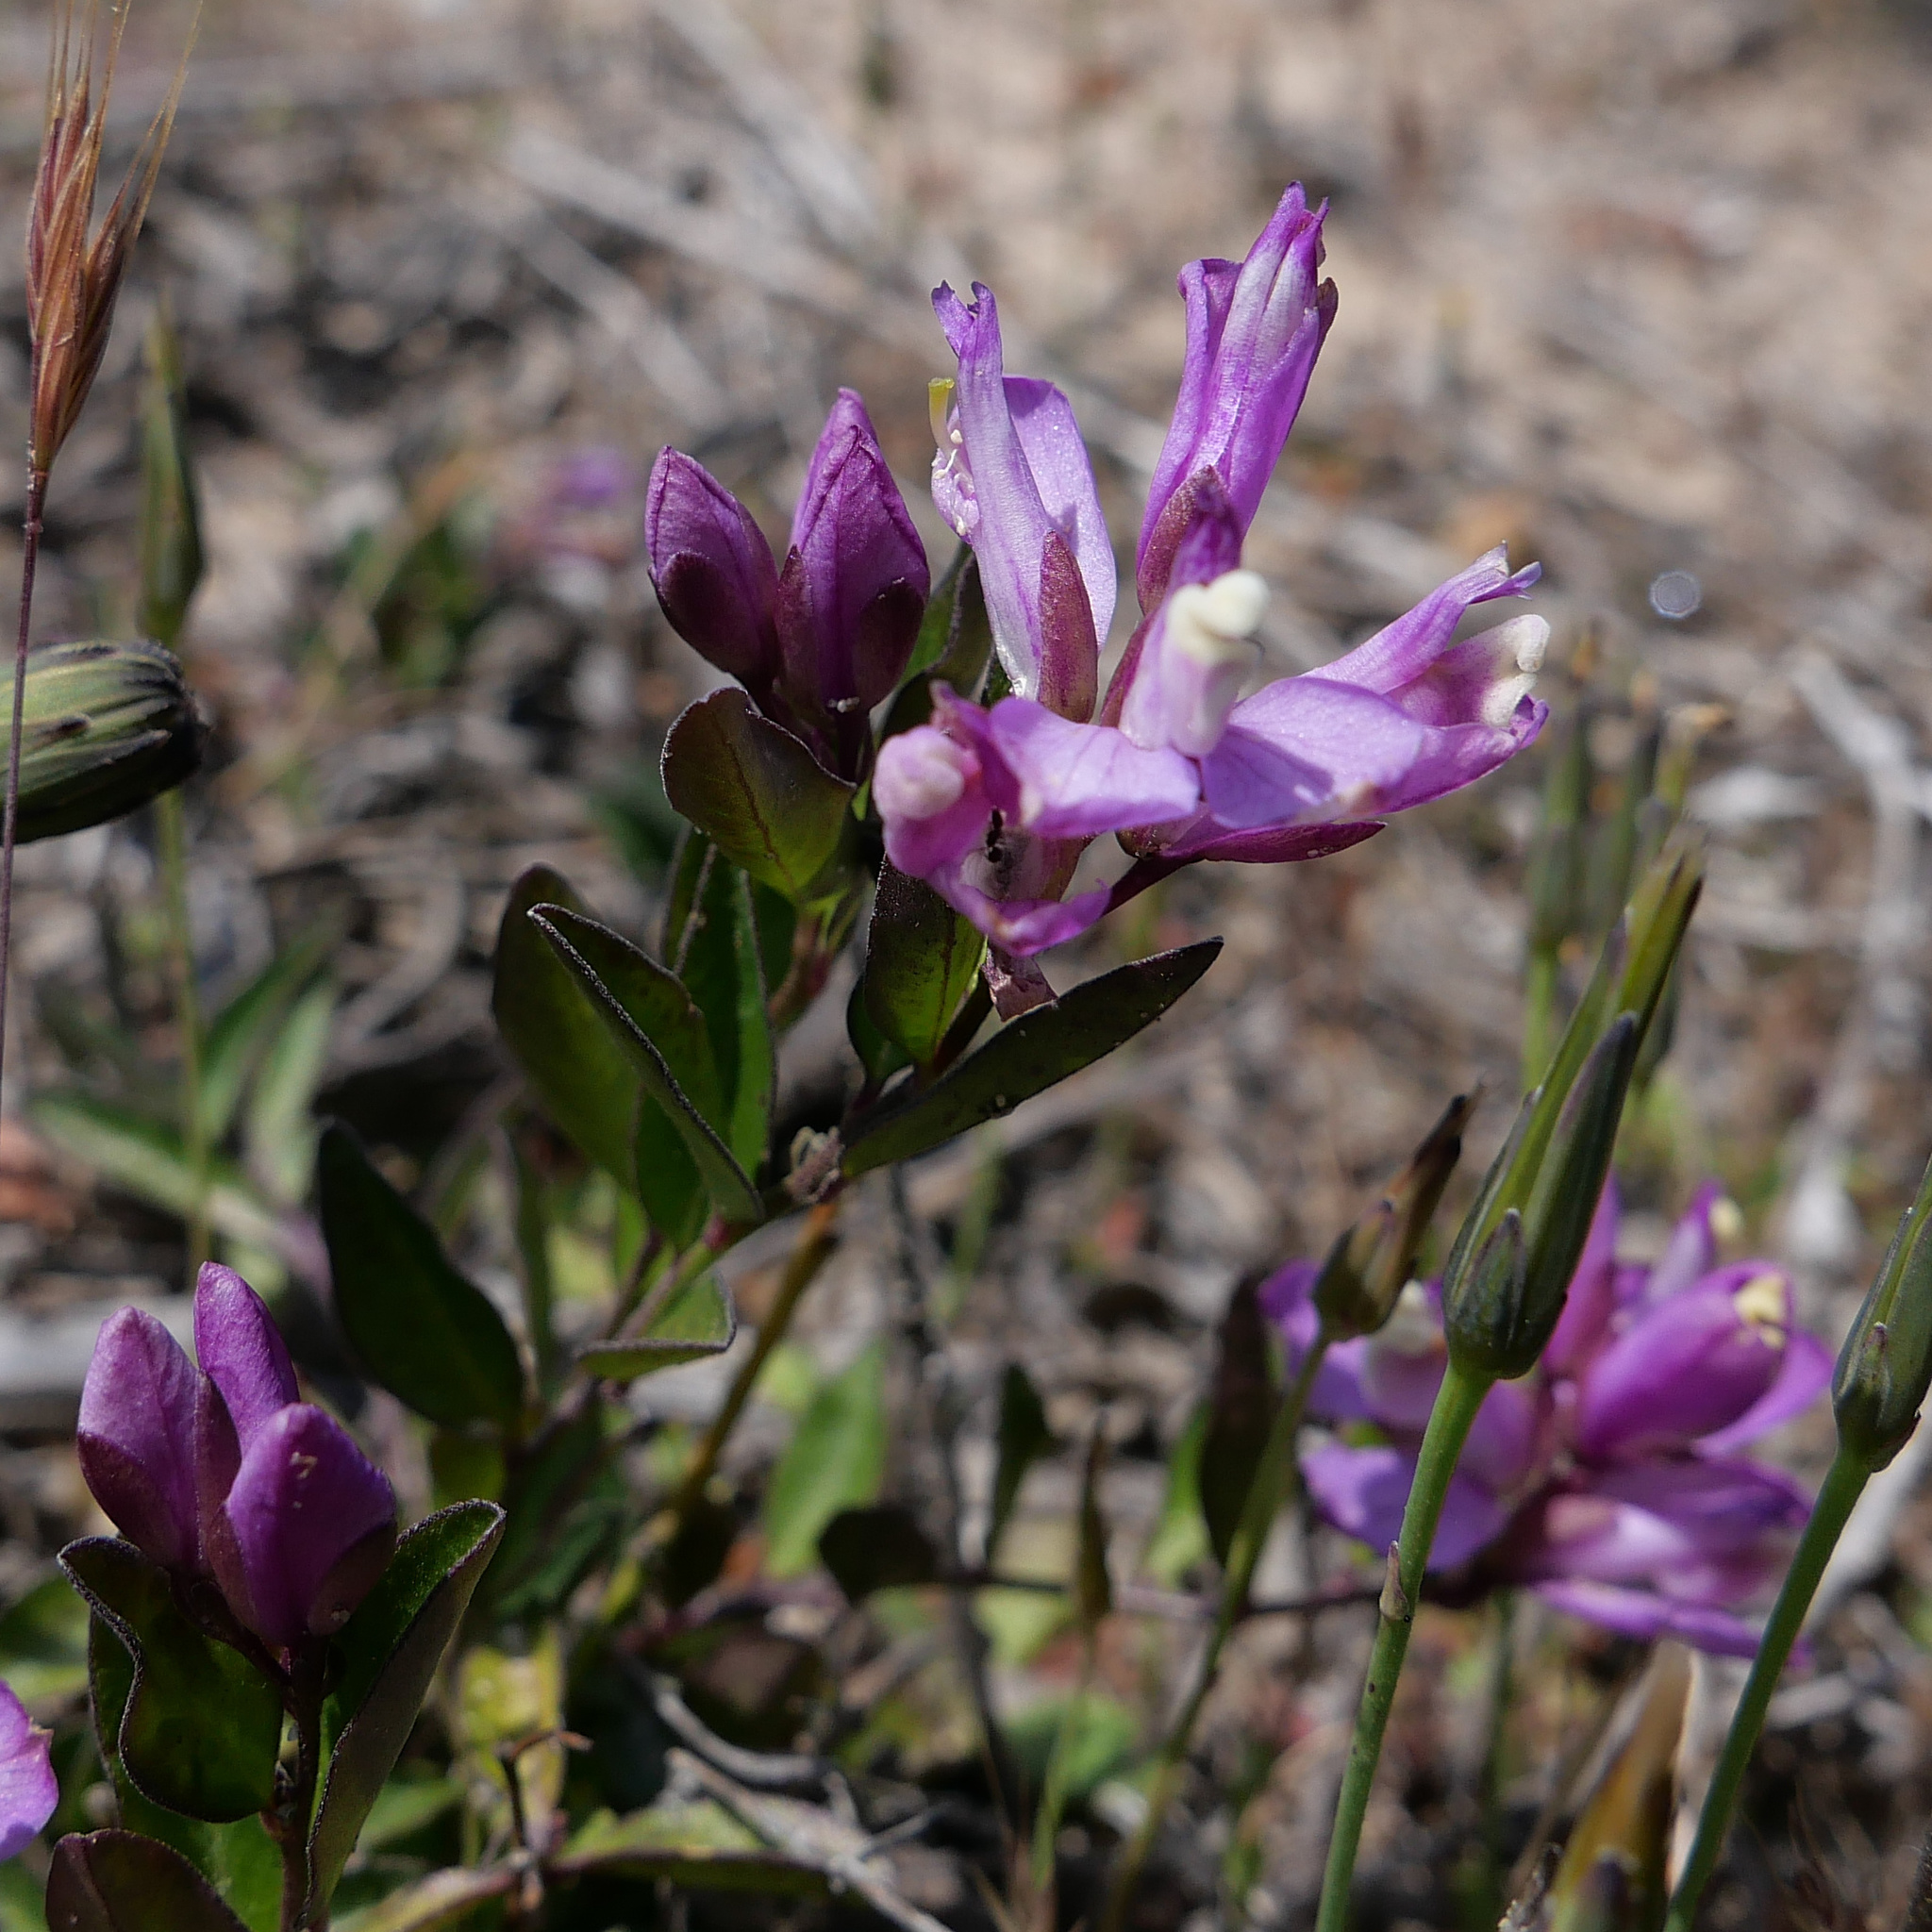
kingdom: Plantae
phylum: Tracheophyta
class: Magnoliopsida
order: Fabales
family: Polygalaceae
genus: Rhinotropis
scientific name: Rhinotropis californica
